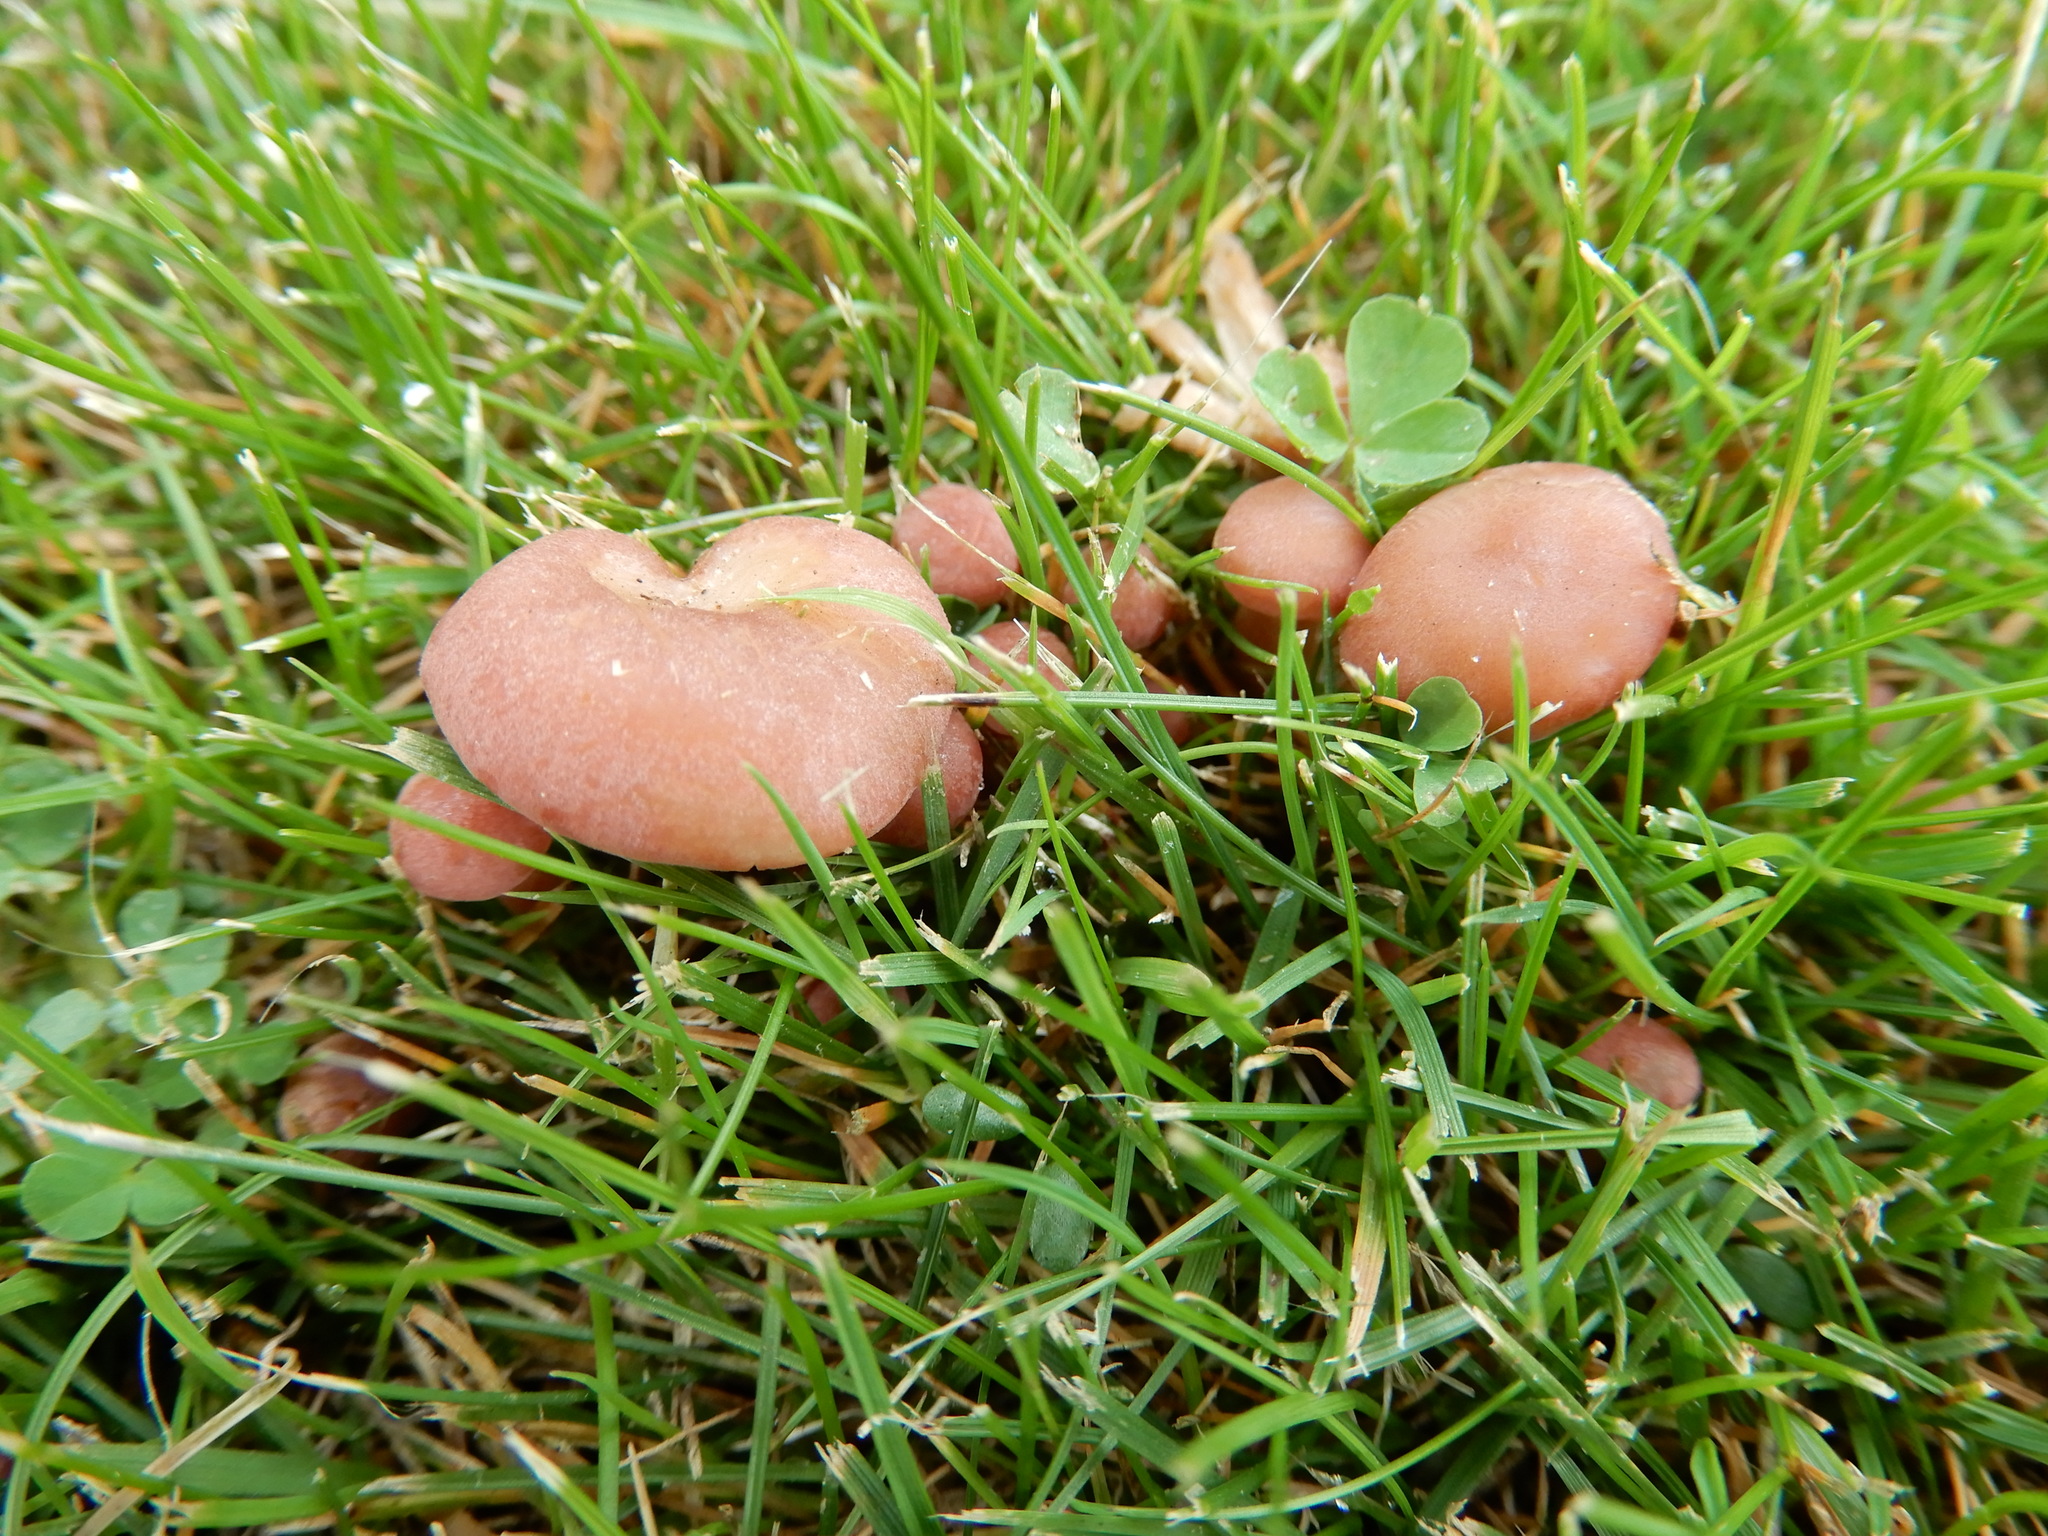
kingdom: Fungi
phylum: Basidiomycota
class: Agaricomycetes
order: Agaricales
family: Lyophyllaceae
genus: Calocybe
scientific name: Calocybe carnea
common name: Pink domecap
